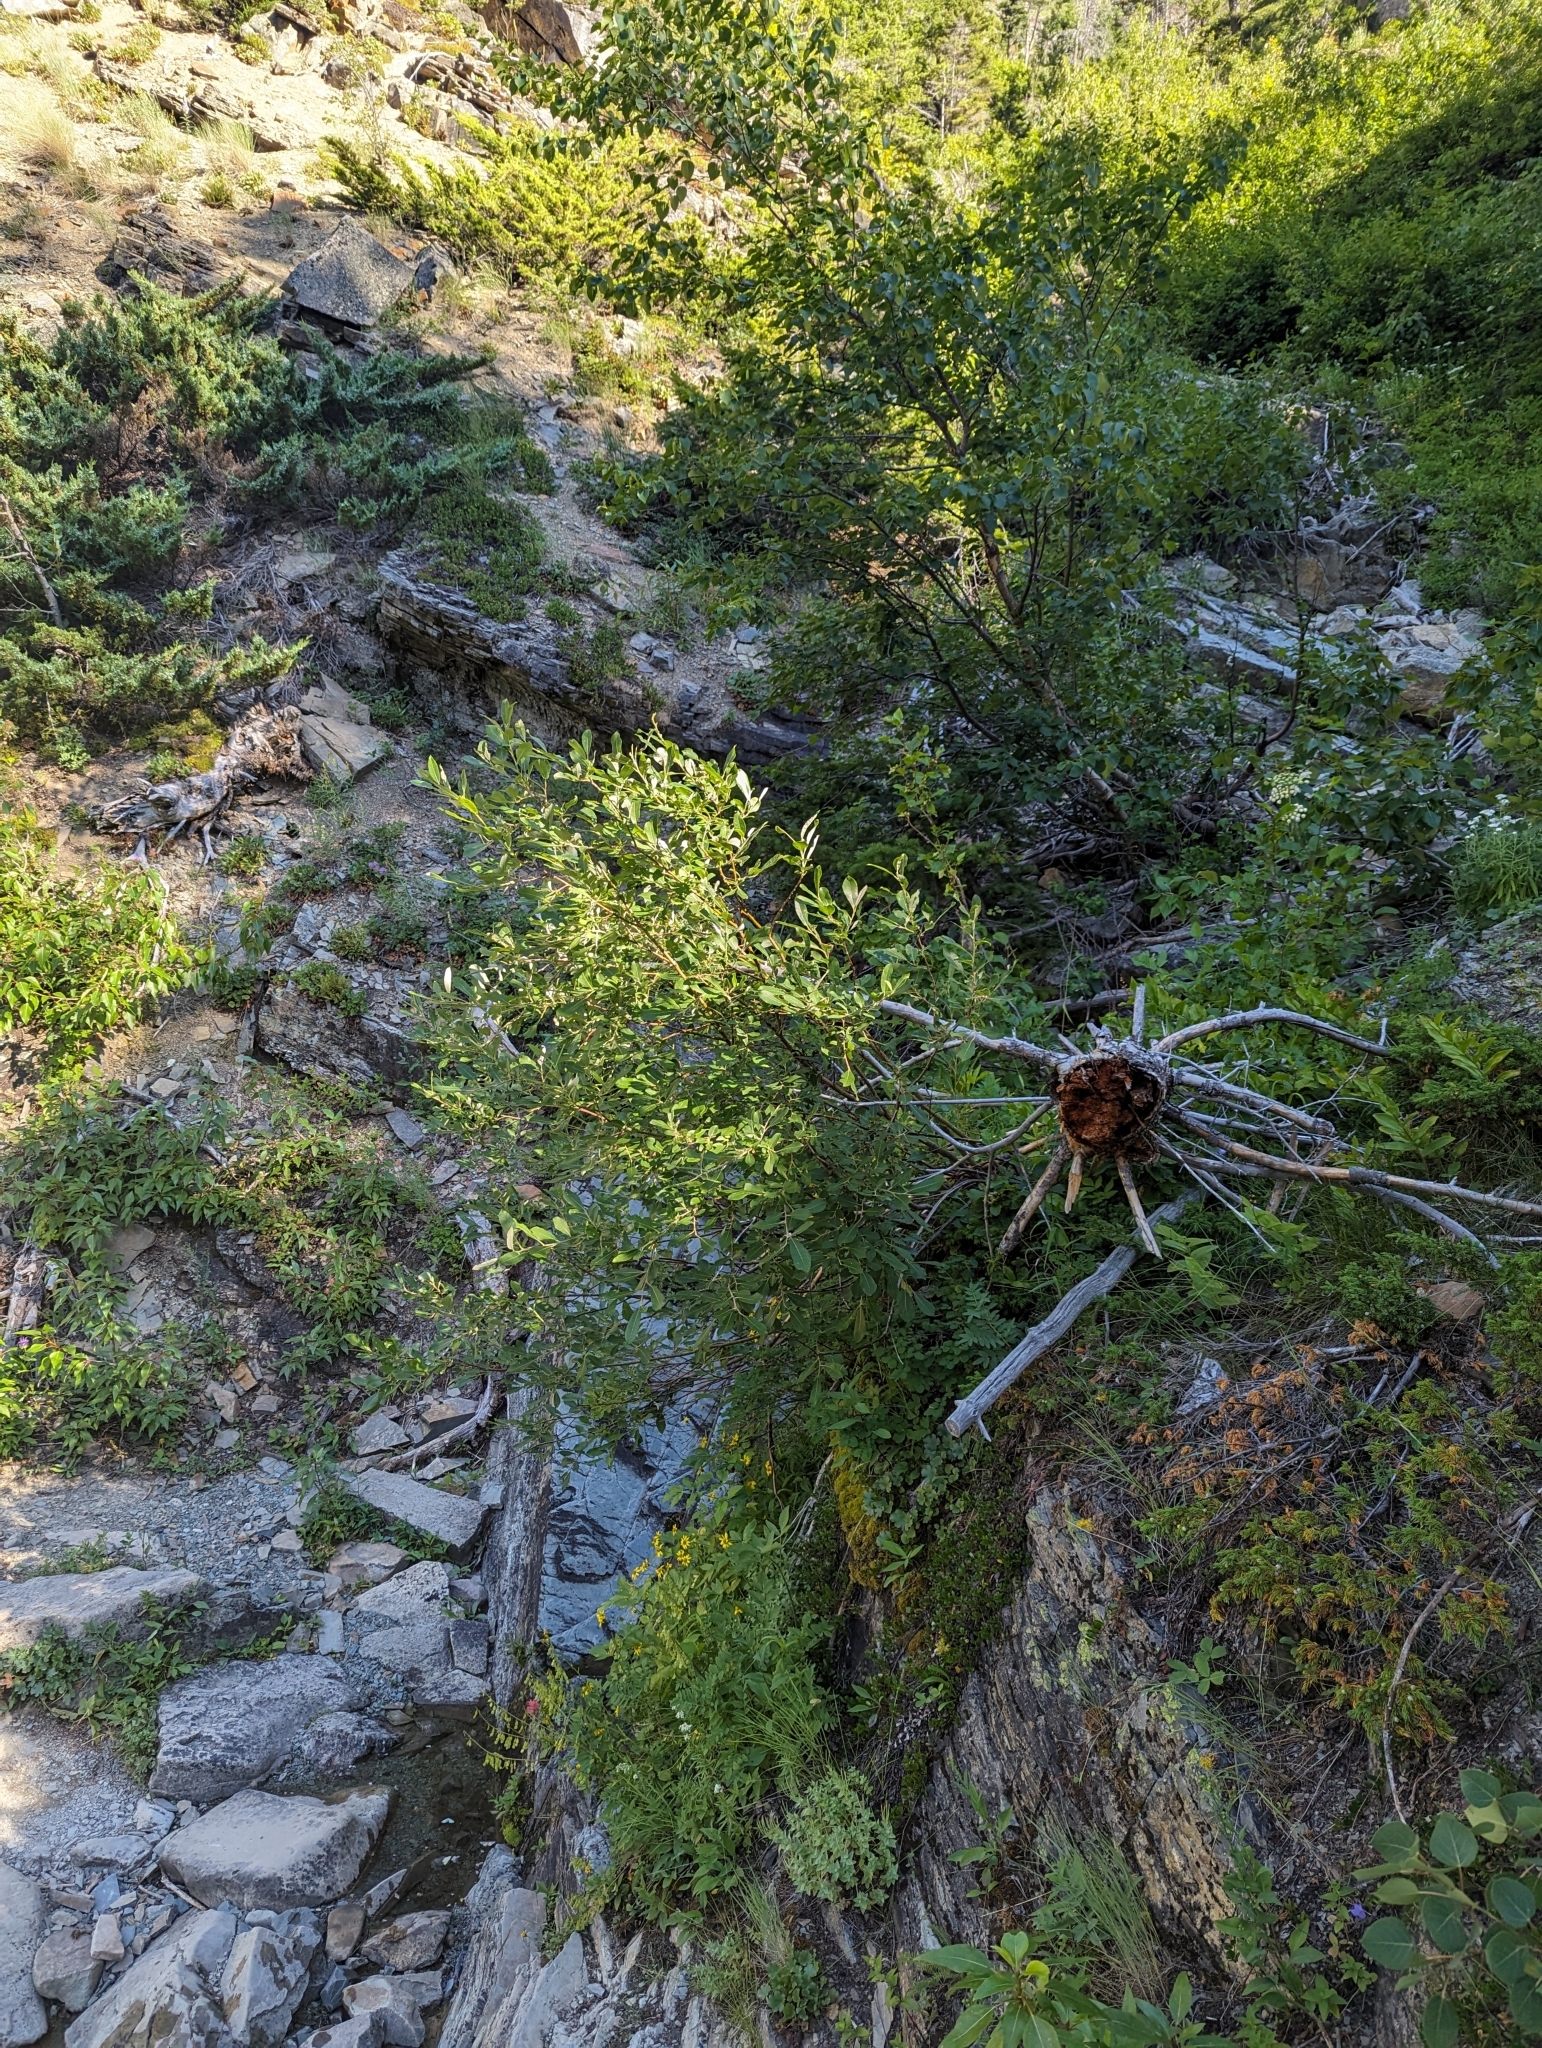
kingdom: Plantae
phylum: Tracheophyta
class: Magnoliopsida
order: Malpighiales
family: Salicaceae
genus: Salix
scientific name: Salix scouleriana
